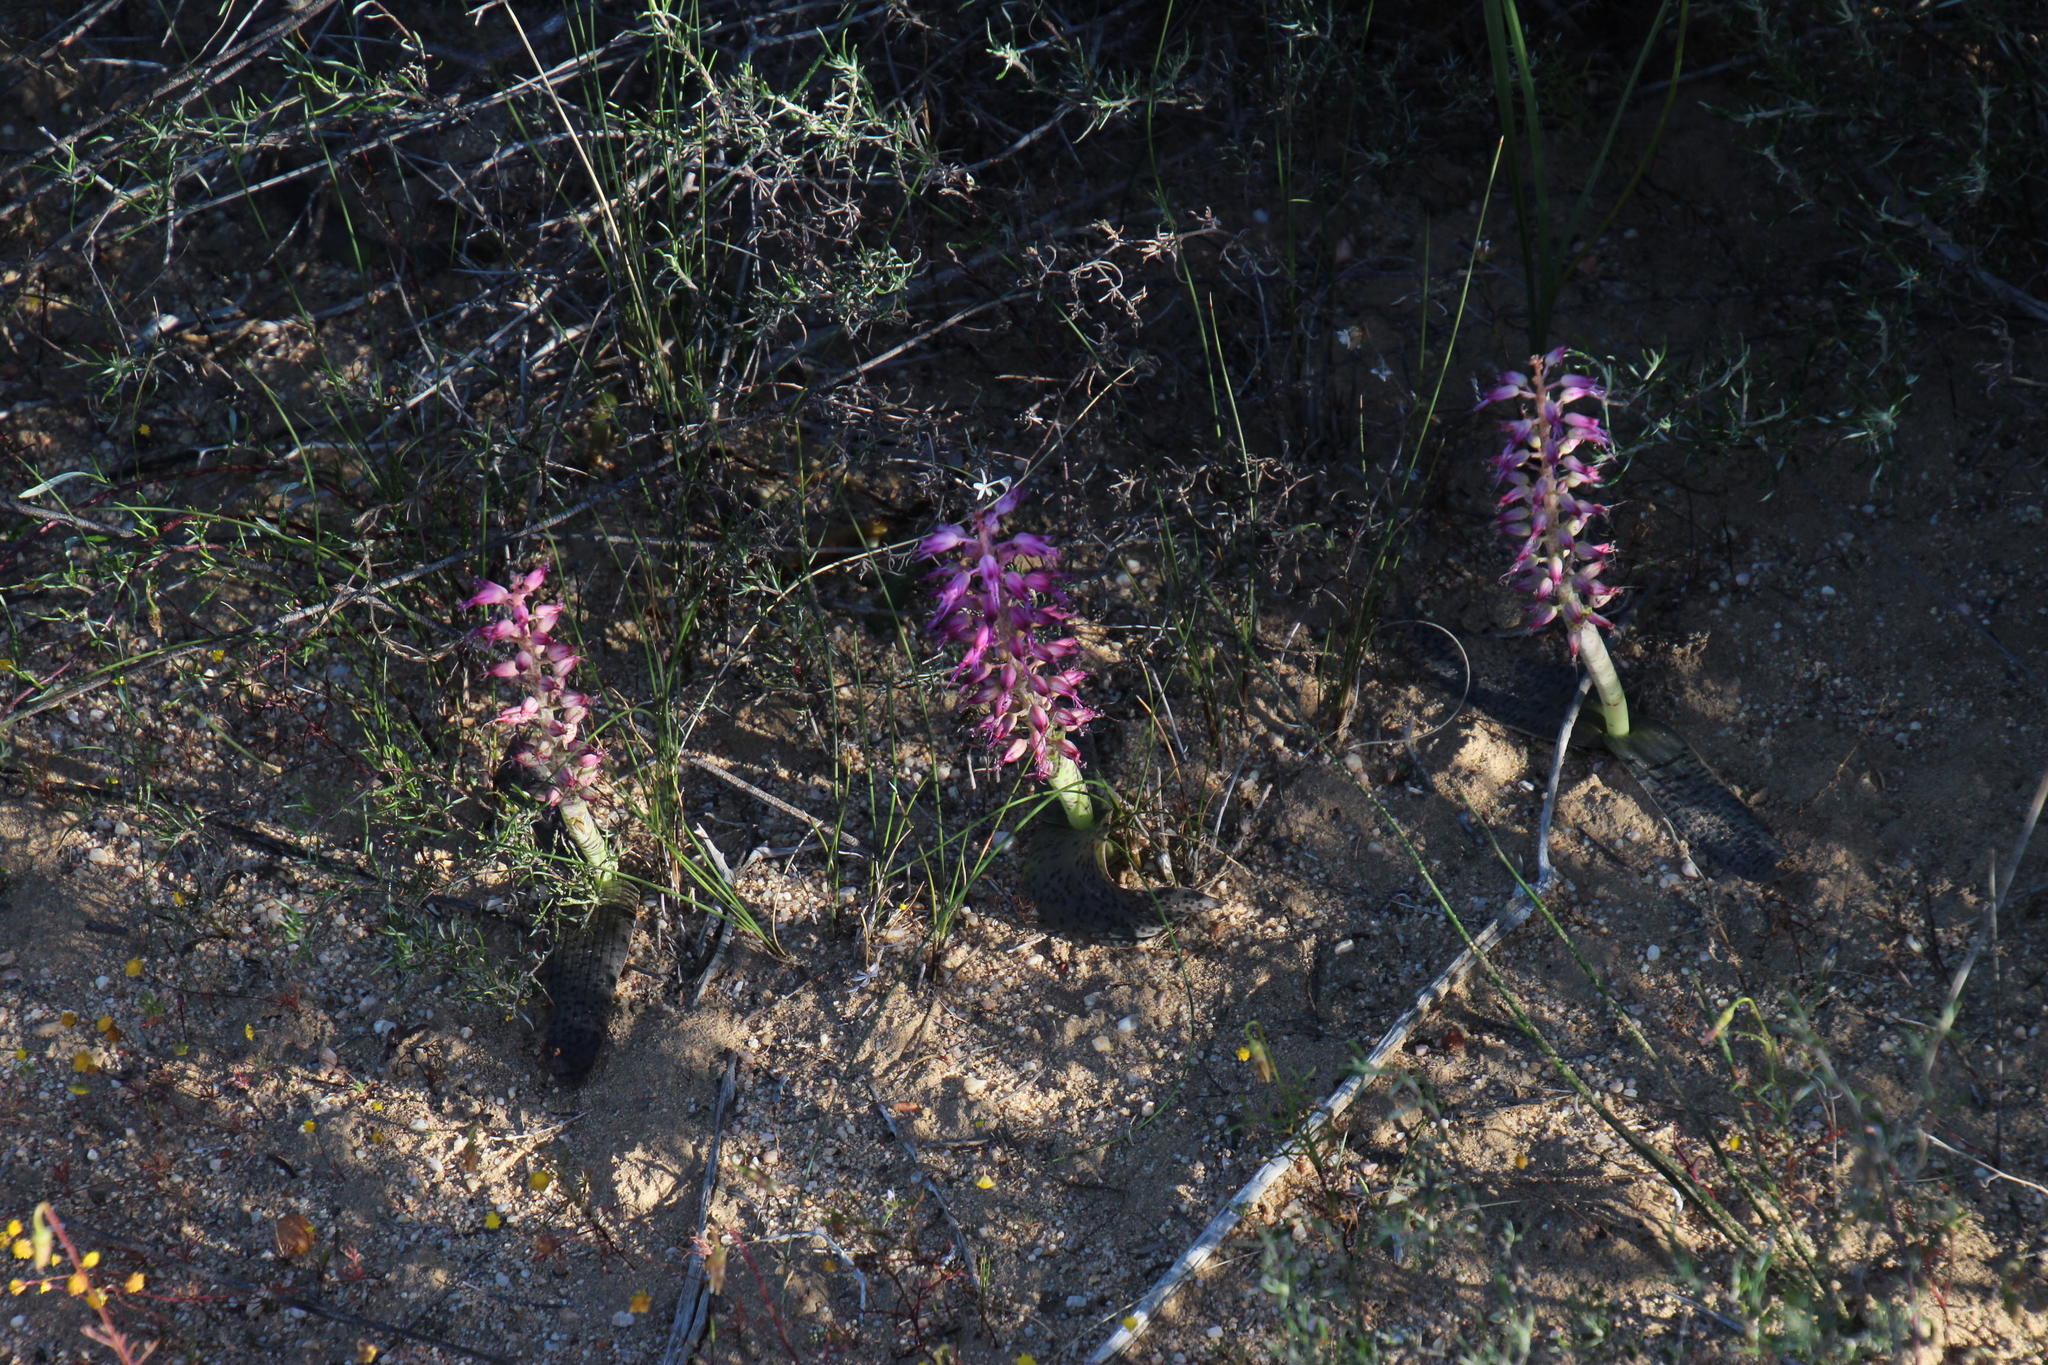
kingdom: Plantae
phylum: Tracheophyta
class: Liliopsida
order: Asparagales
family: Asparagaceae
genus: Lachenalia
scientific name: Lachenalia nardousbergensis
